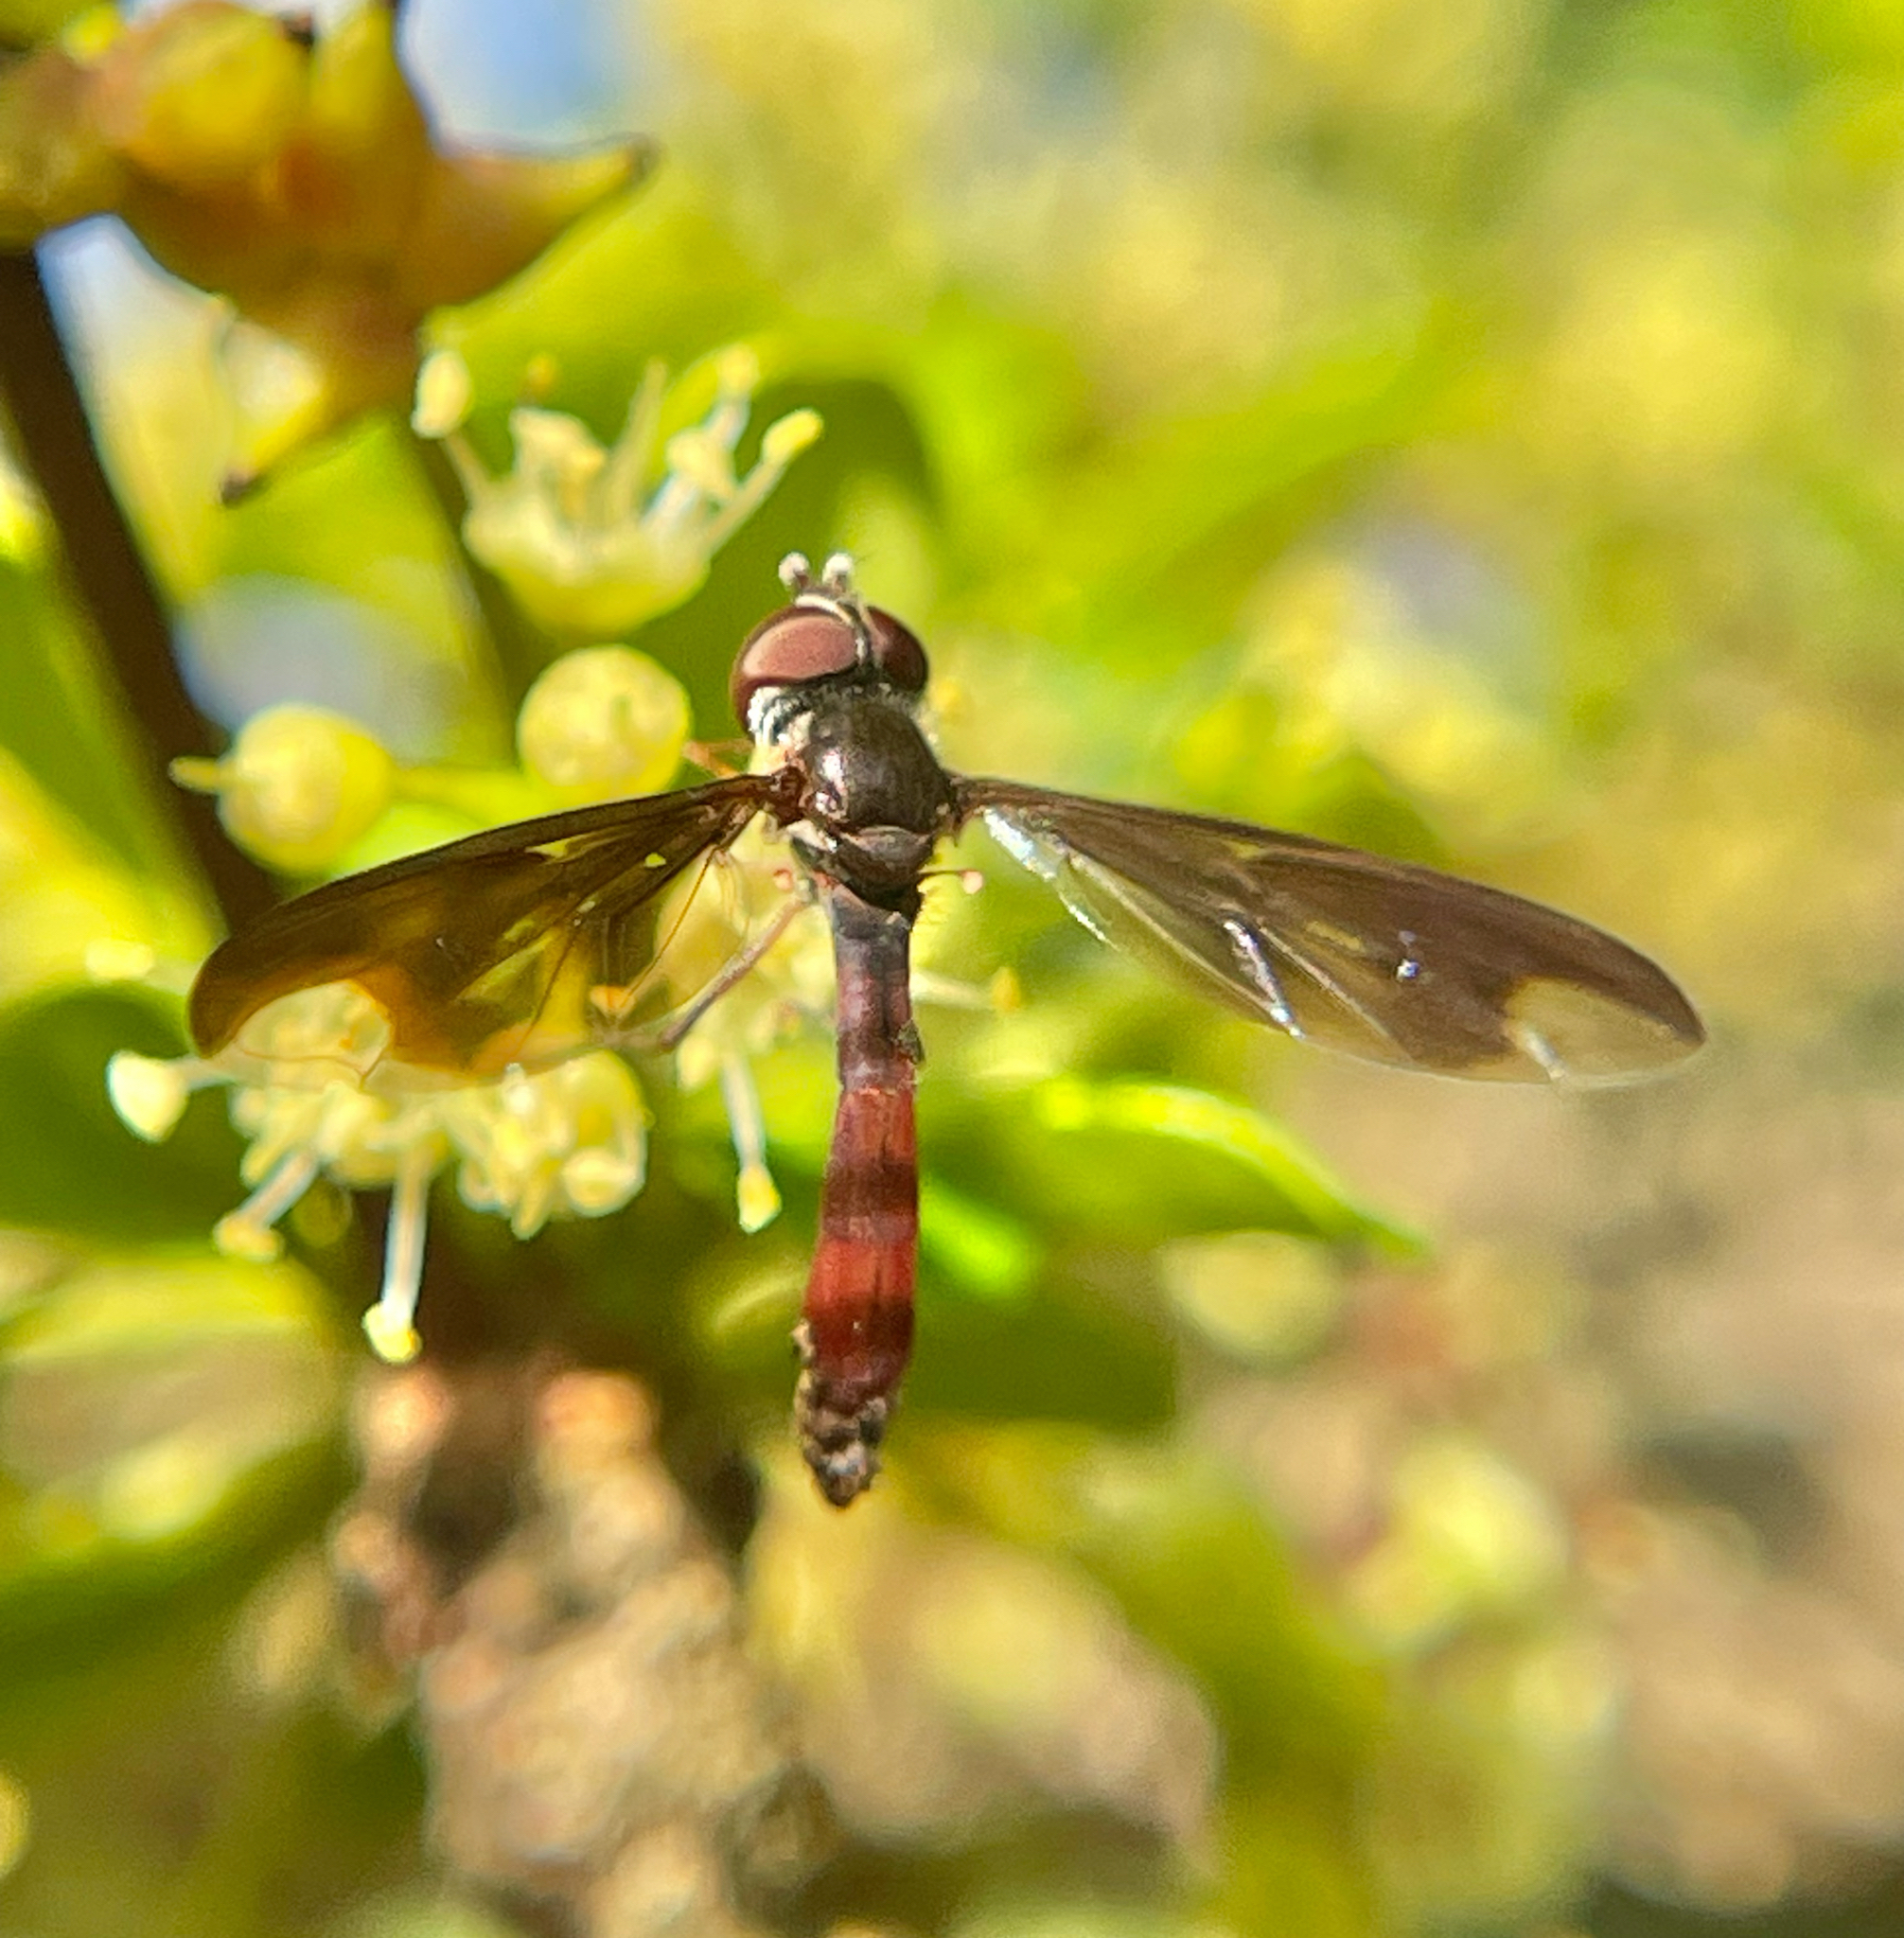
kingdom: Animalia
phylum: Arthropoda
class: Insecta
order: Diptera
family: Syrphidae
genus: Ocyptamus
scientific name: Ocyptamus fuscipennis
